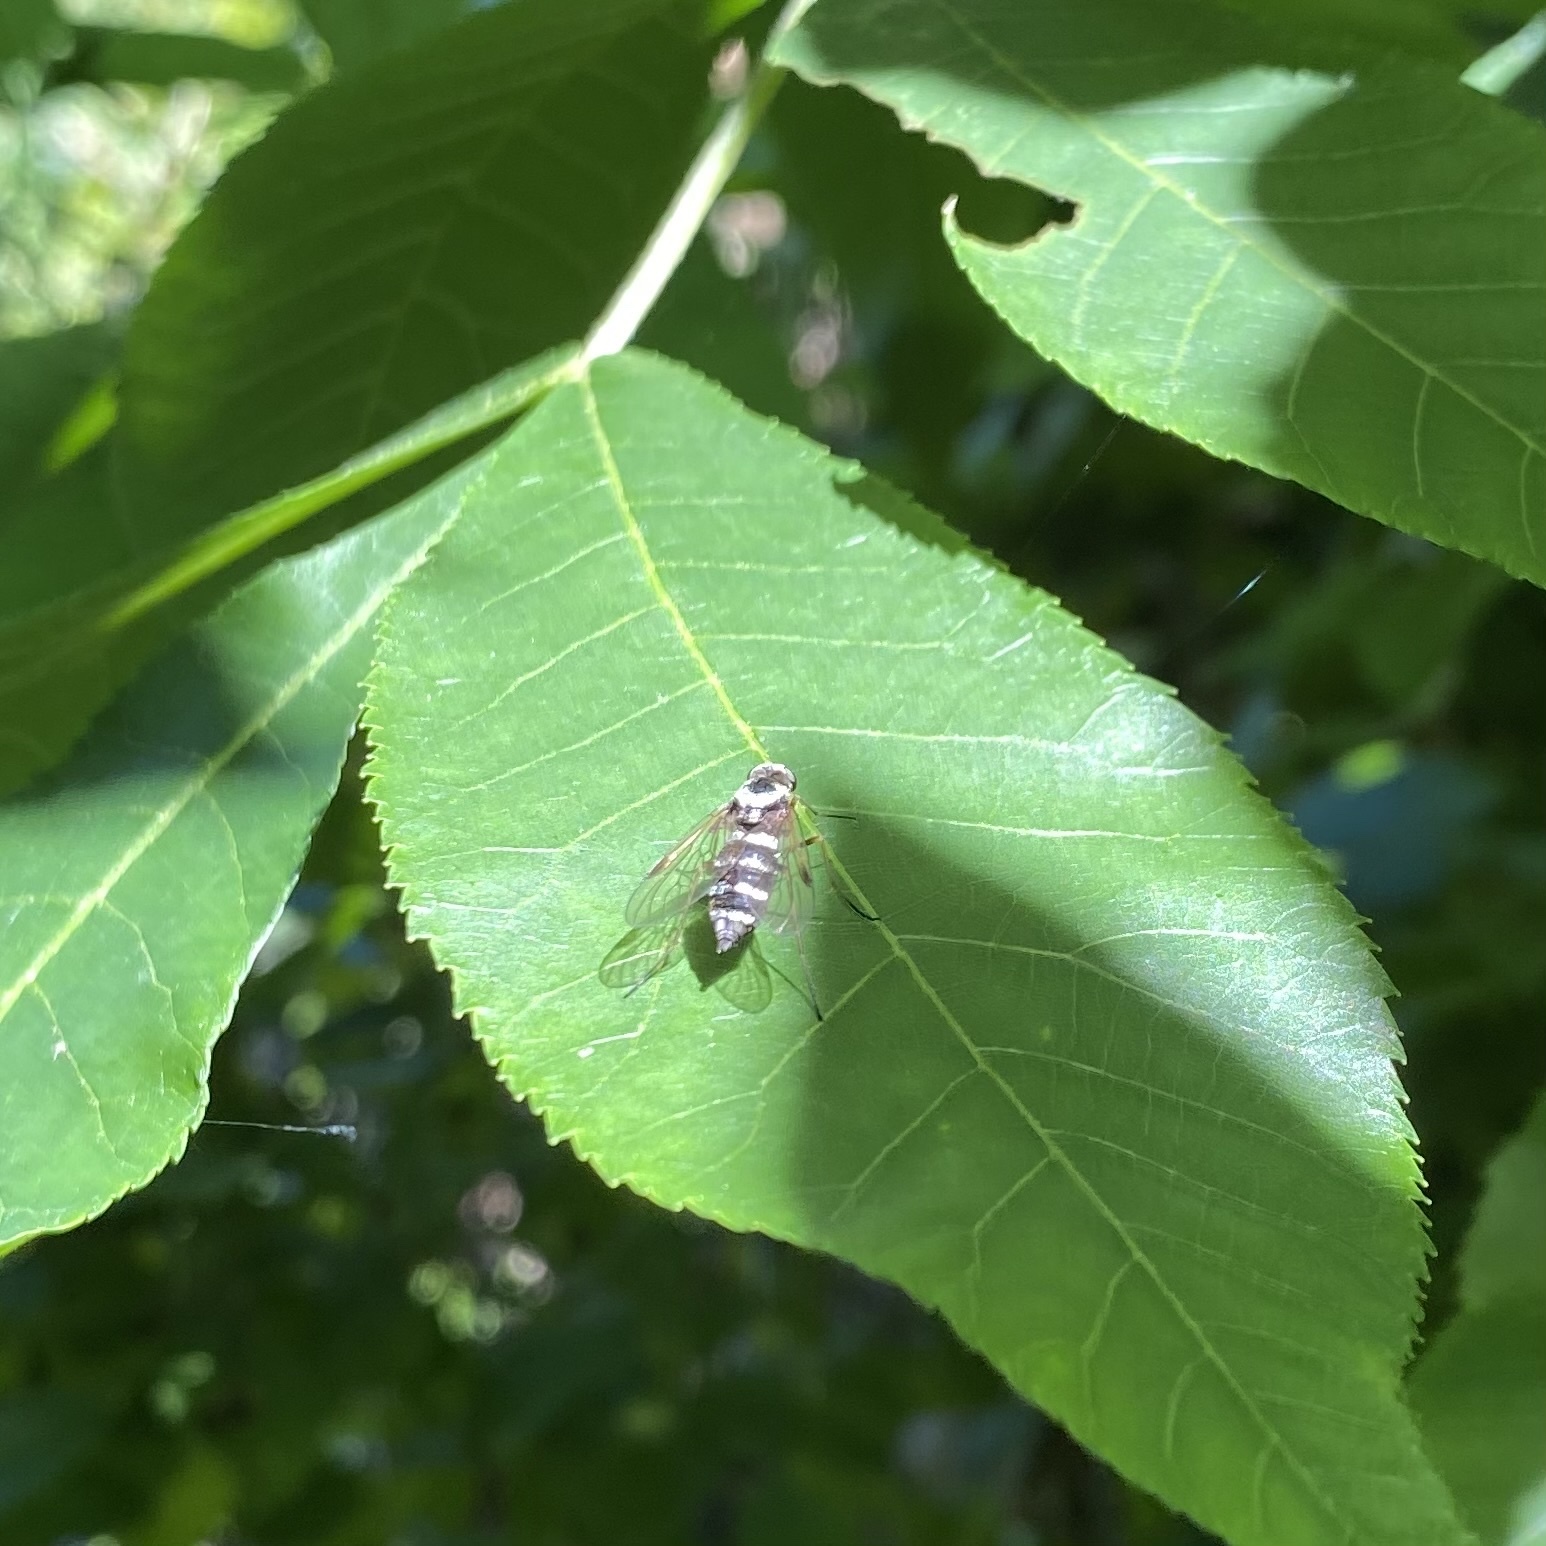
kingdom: Animalia
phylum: Arthropoda
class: Insecta
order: Diptera
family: Rhagionidae
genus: Chrysopilus
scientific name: Chrysopilus fasciatus
